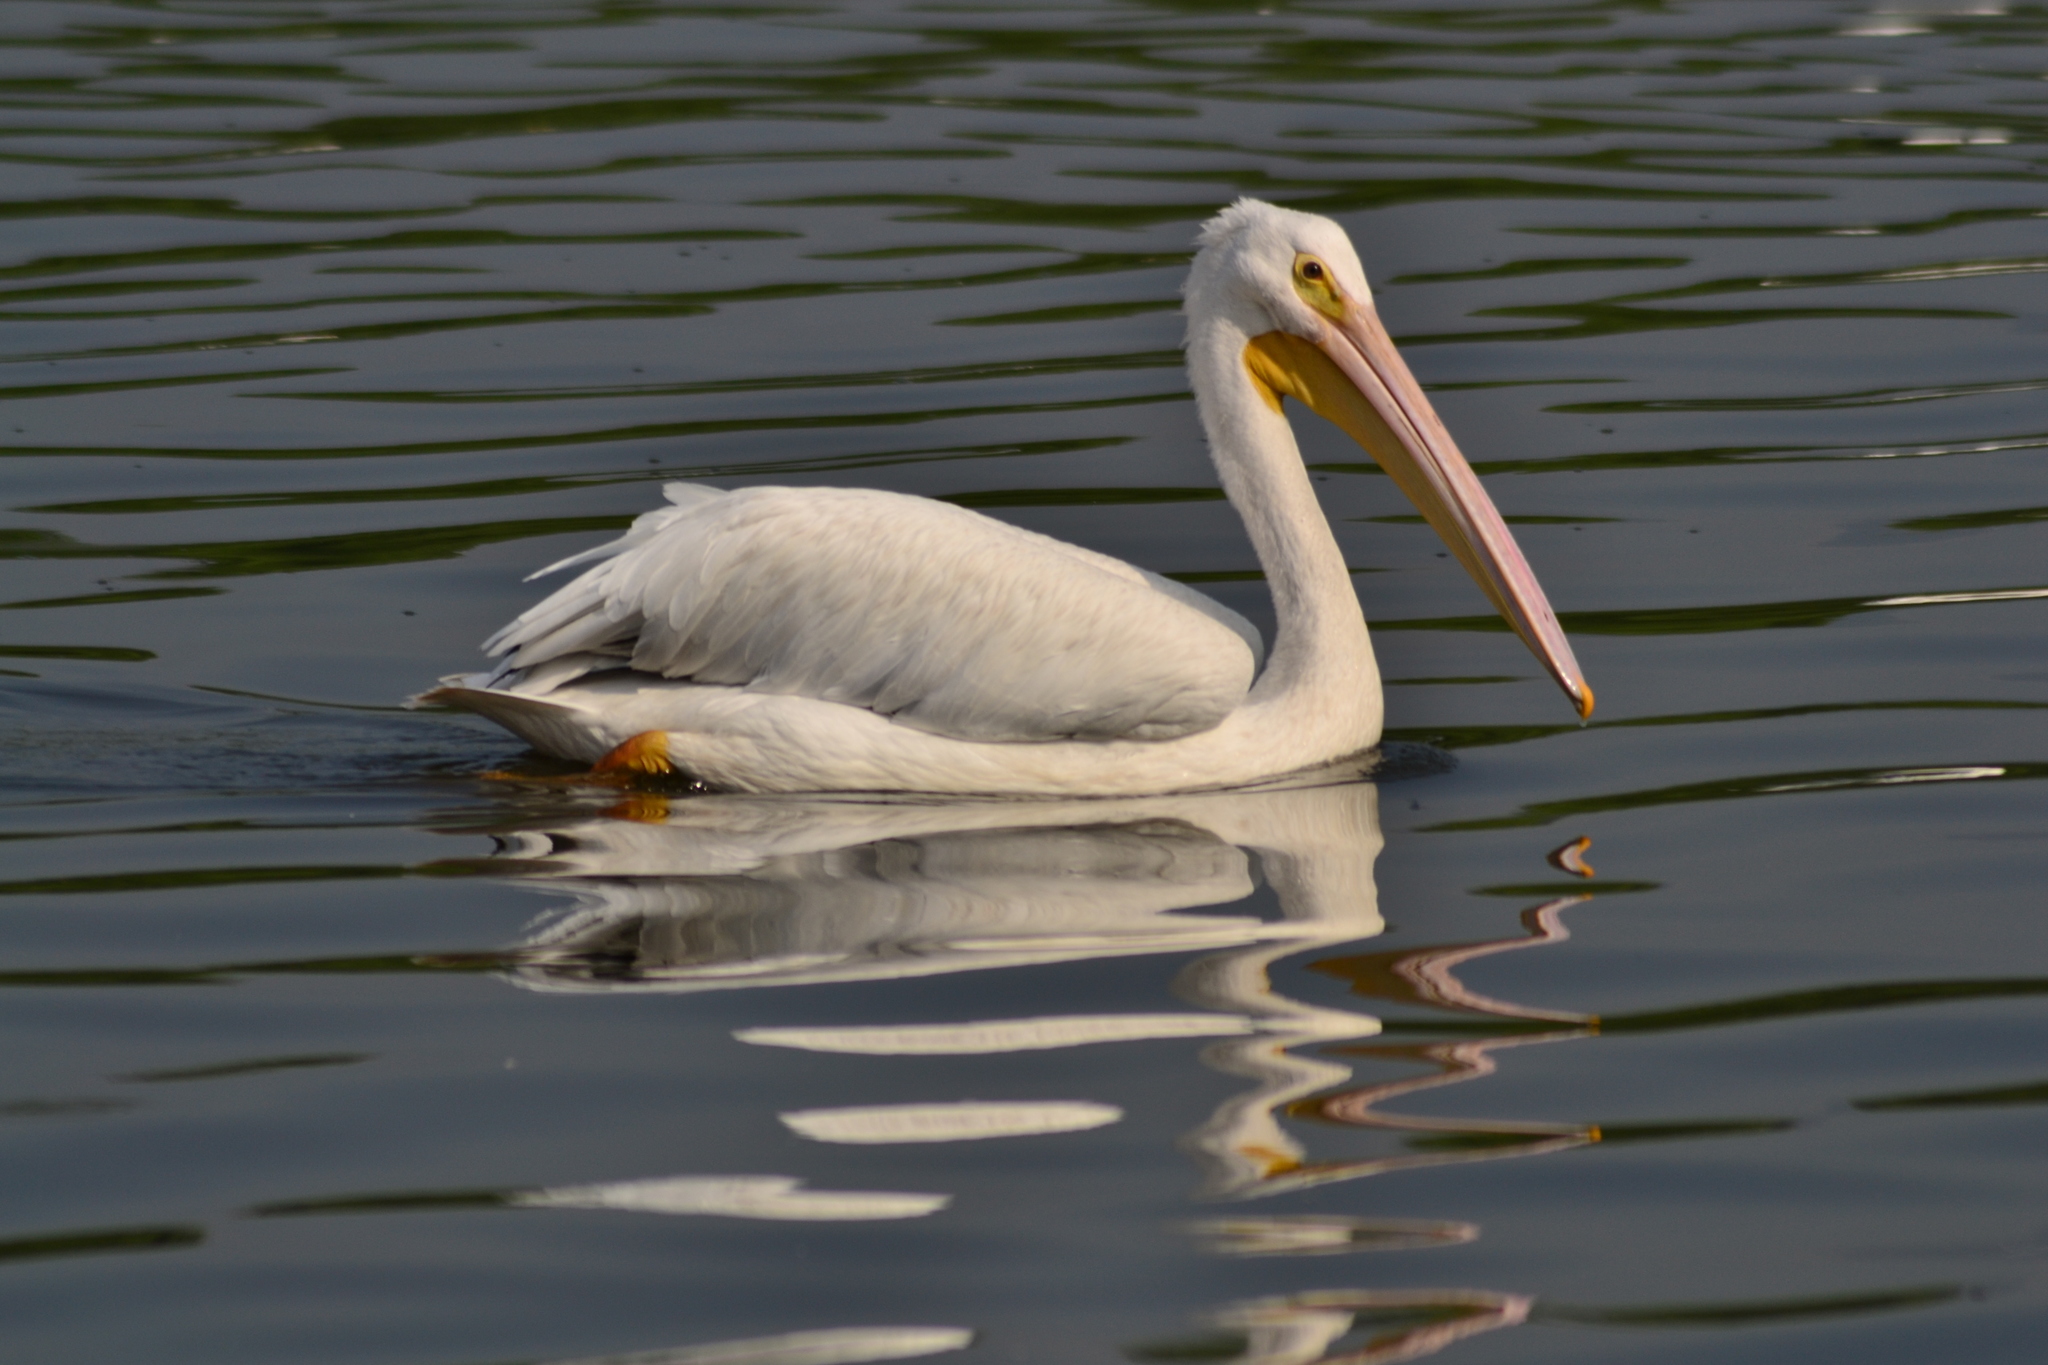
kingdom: Animalia
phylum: Chordata
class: Aves
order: Pelecaniformes
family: Pelecanidae
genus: Pelecanus
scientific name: Pelecanus erythrorhynchos
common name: American white pelican
